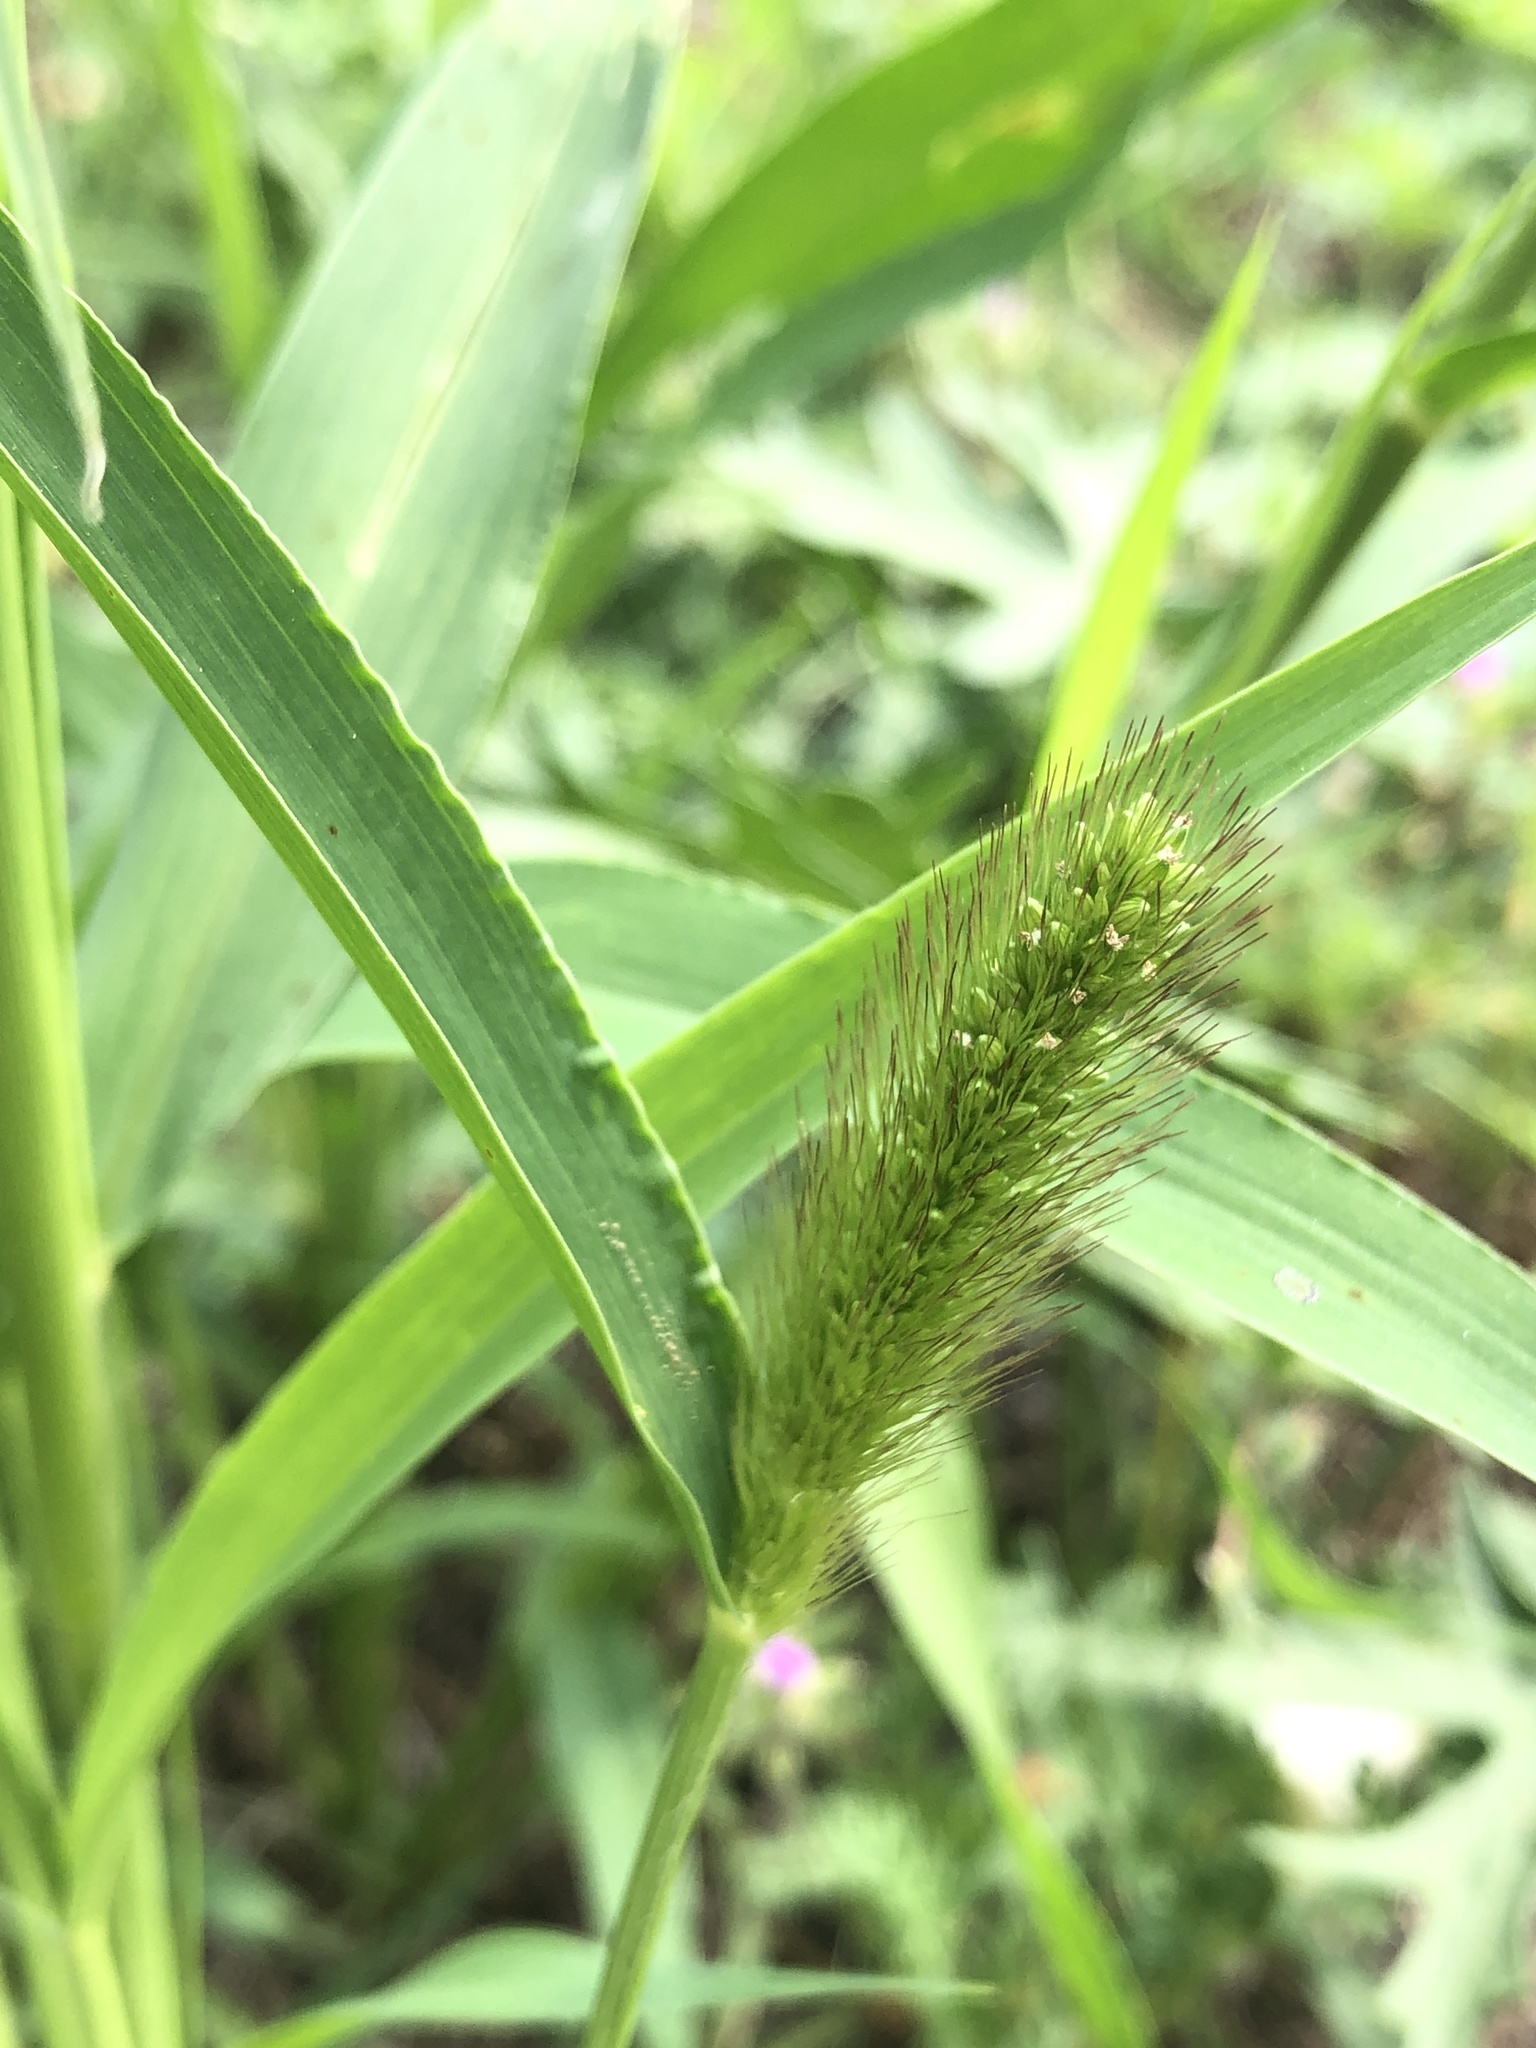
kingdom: Plantae
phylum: Tracheophyta
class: Liliopsida
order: Poales
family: Poaceae
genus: Setaria
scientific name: Setaria viridis
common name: Green bristlegrass
